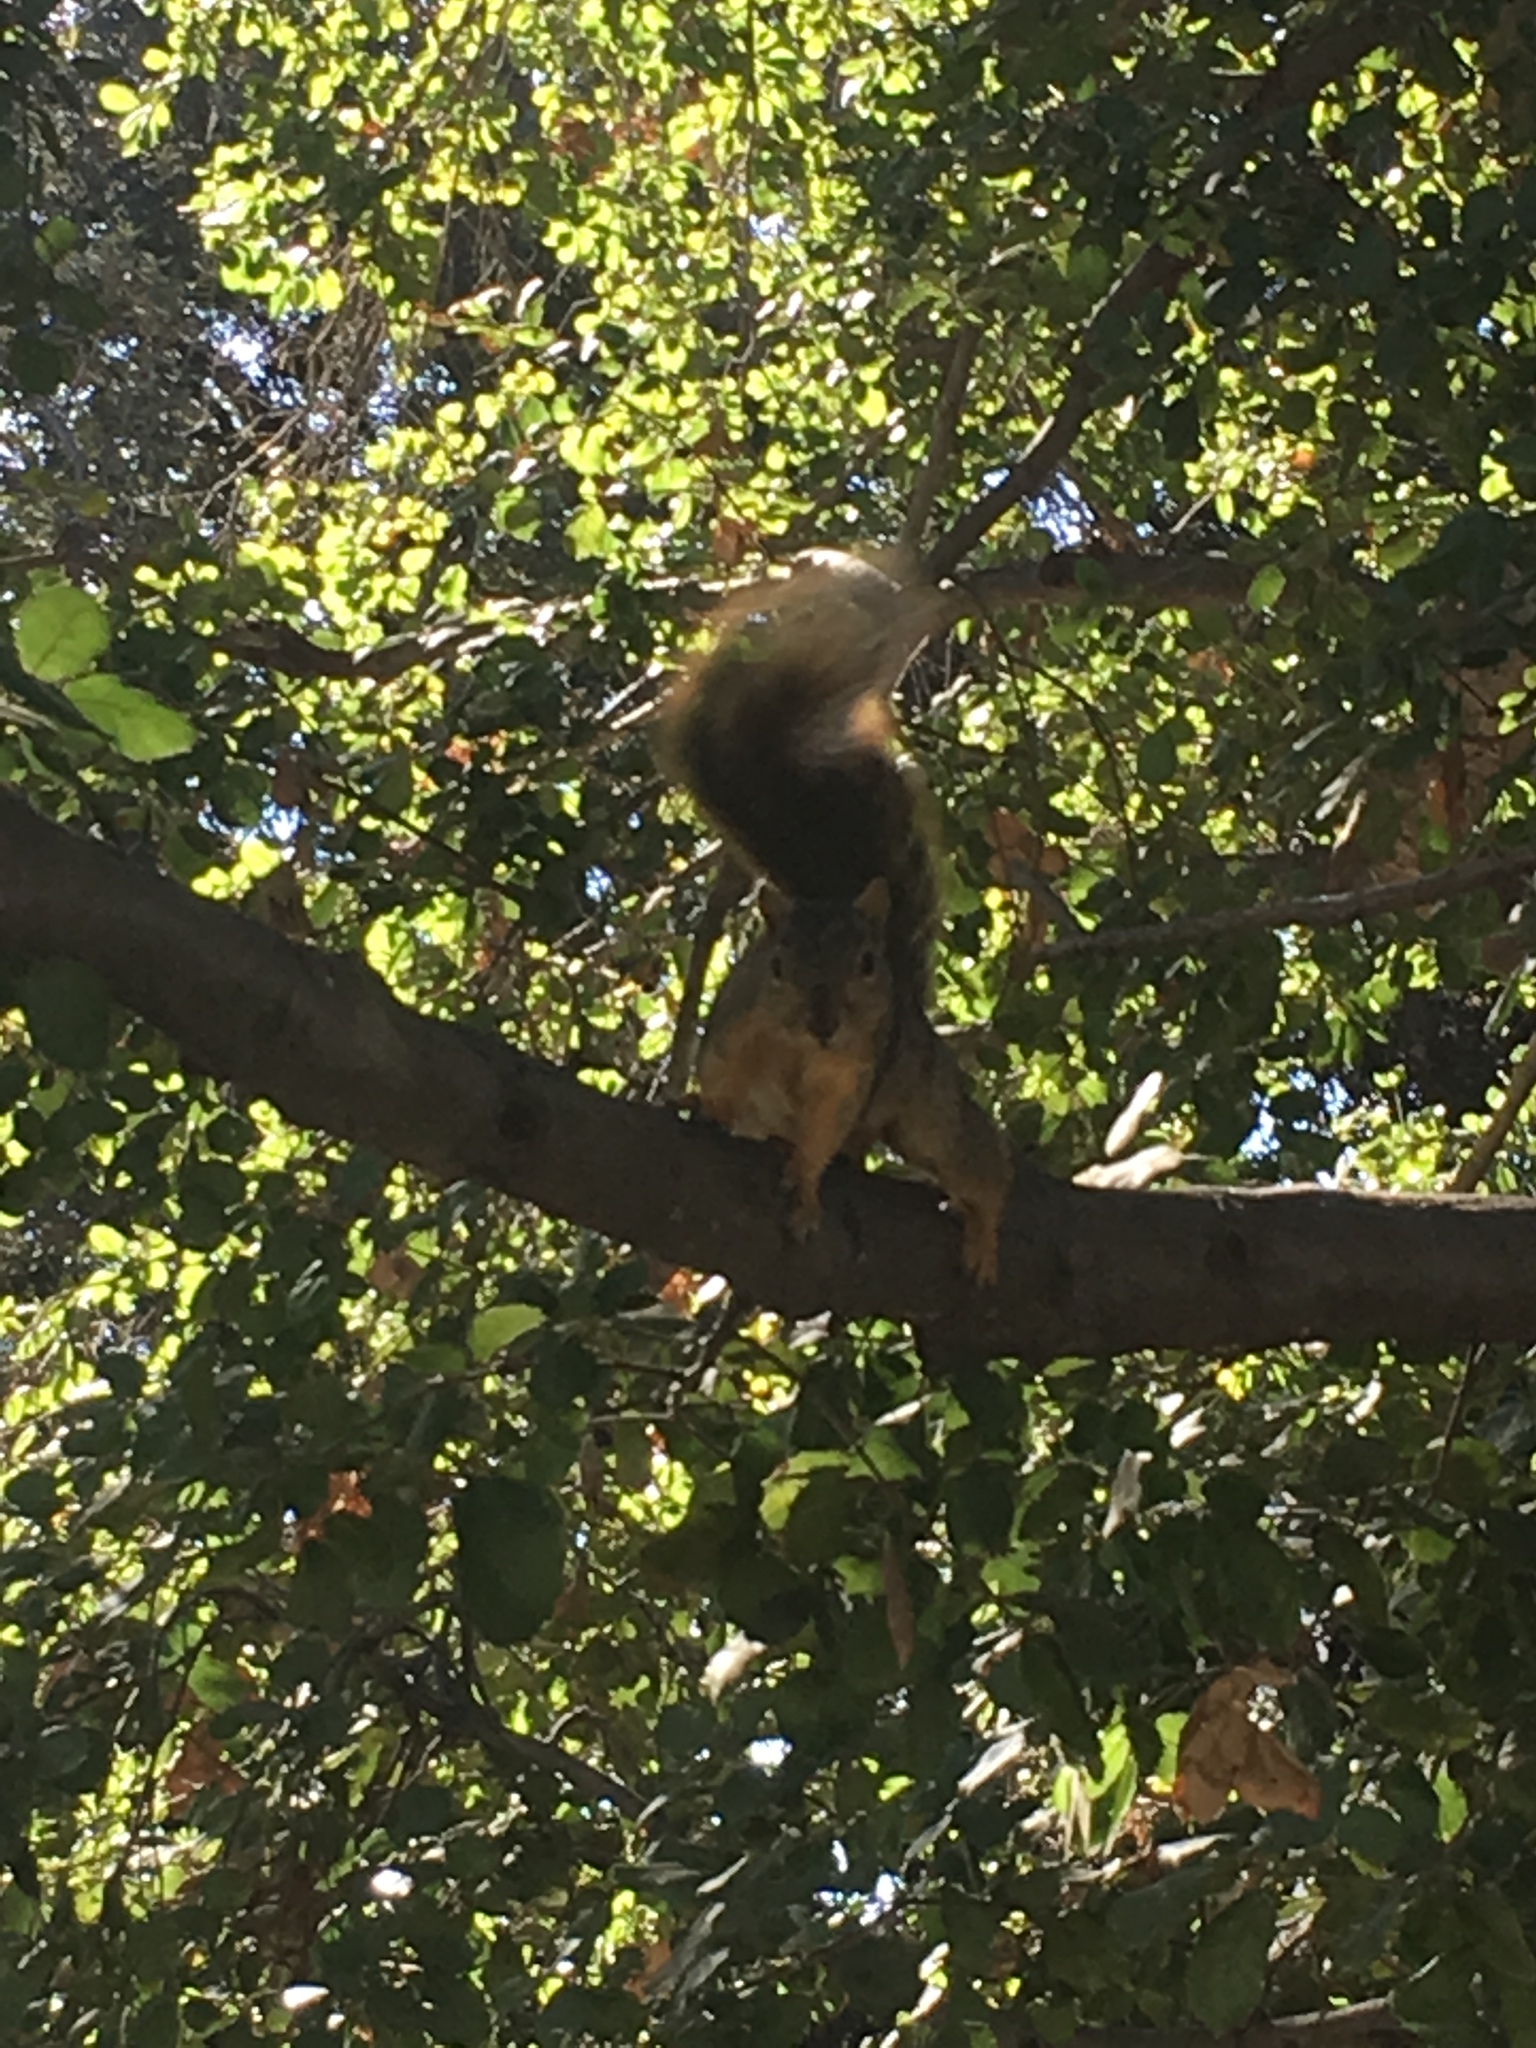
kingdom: Animalia
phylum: Chordata
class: Mammalia
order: Rodentia
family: Sciuridae
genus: Sciurus
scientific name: Sciurus niger
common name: Fox squirrel
